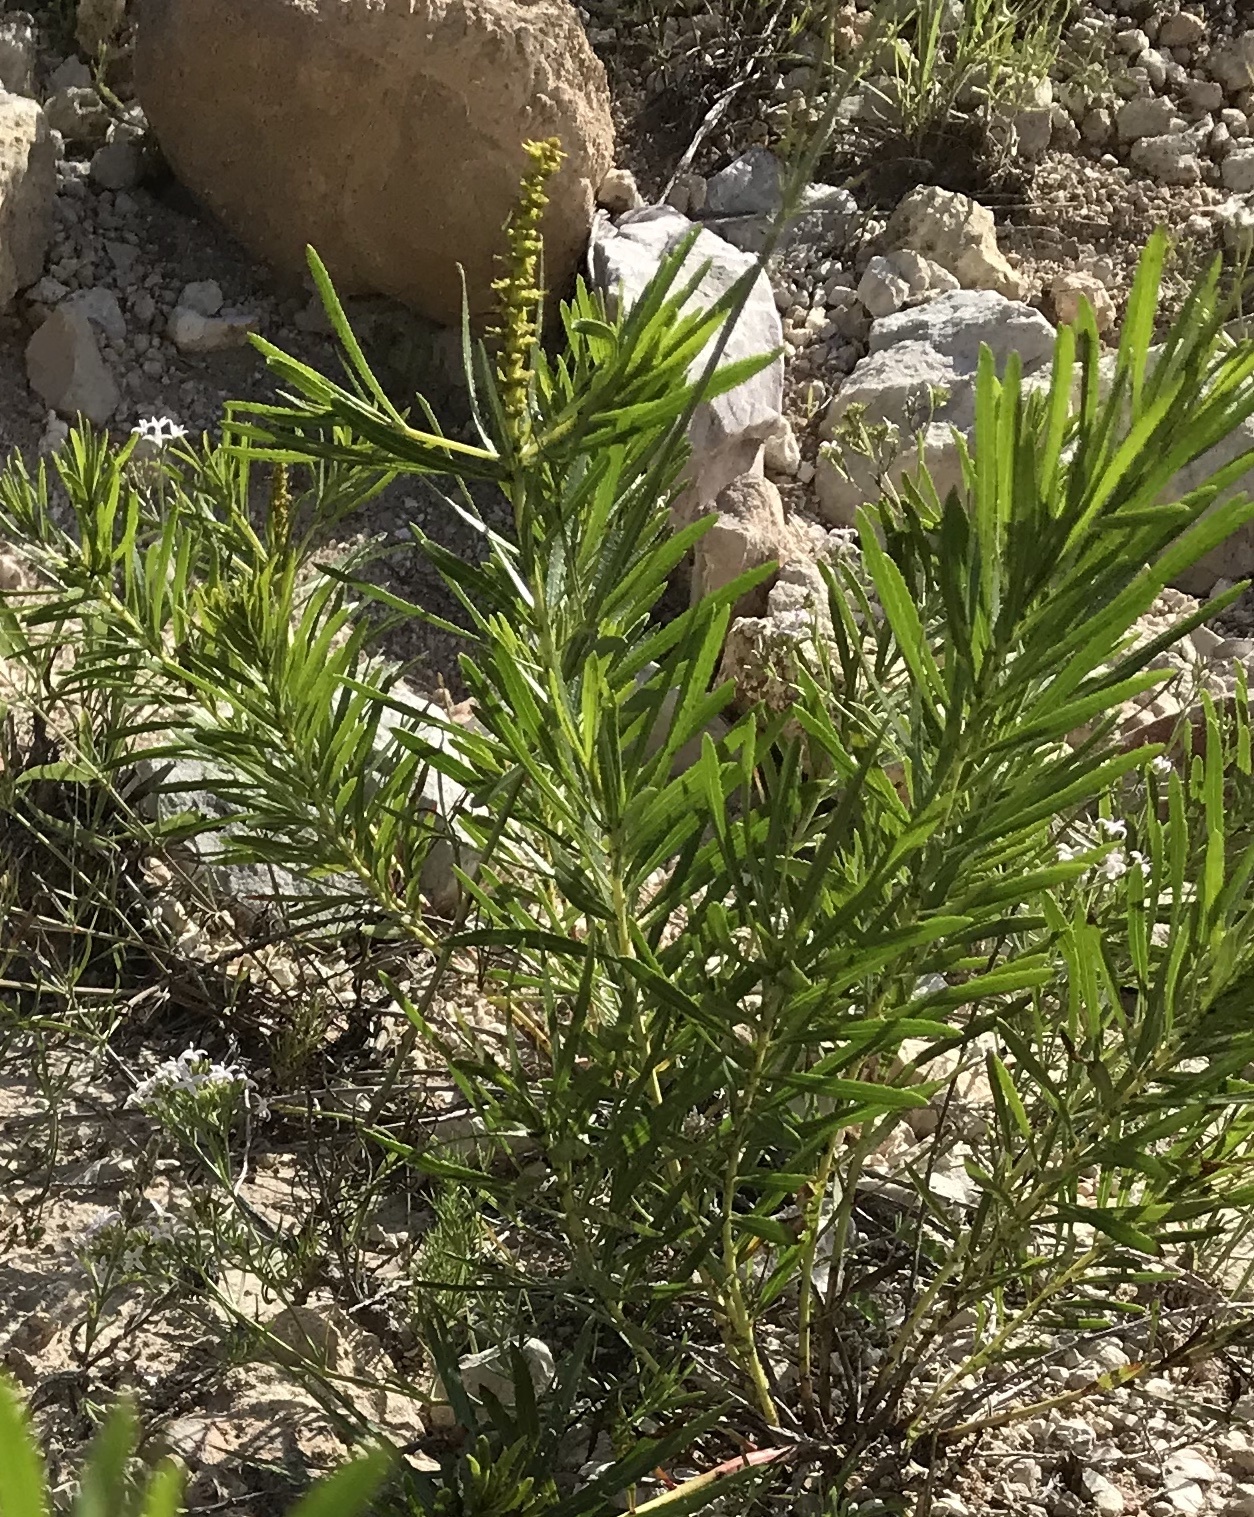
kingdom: Plantae
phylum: Tracheophyta
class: Magnoliopsida
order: Malpighiales
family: Euphorbiaceae
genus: Stillingia
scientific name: Stillingia texana
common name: Texas stillingia
